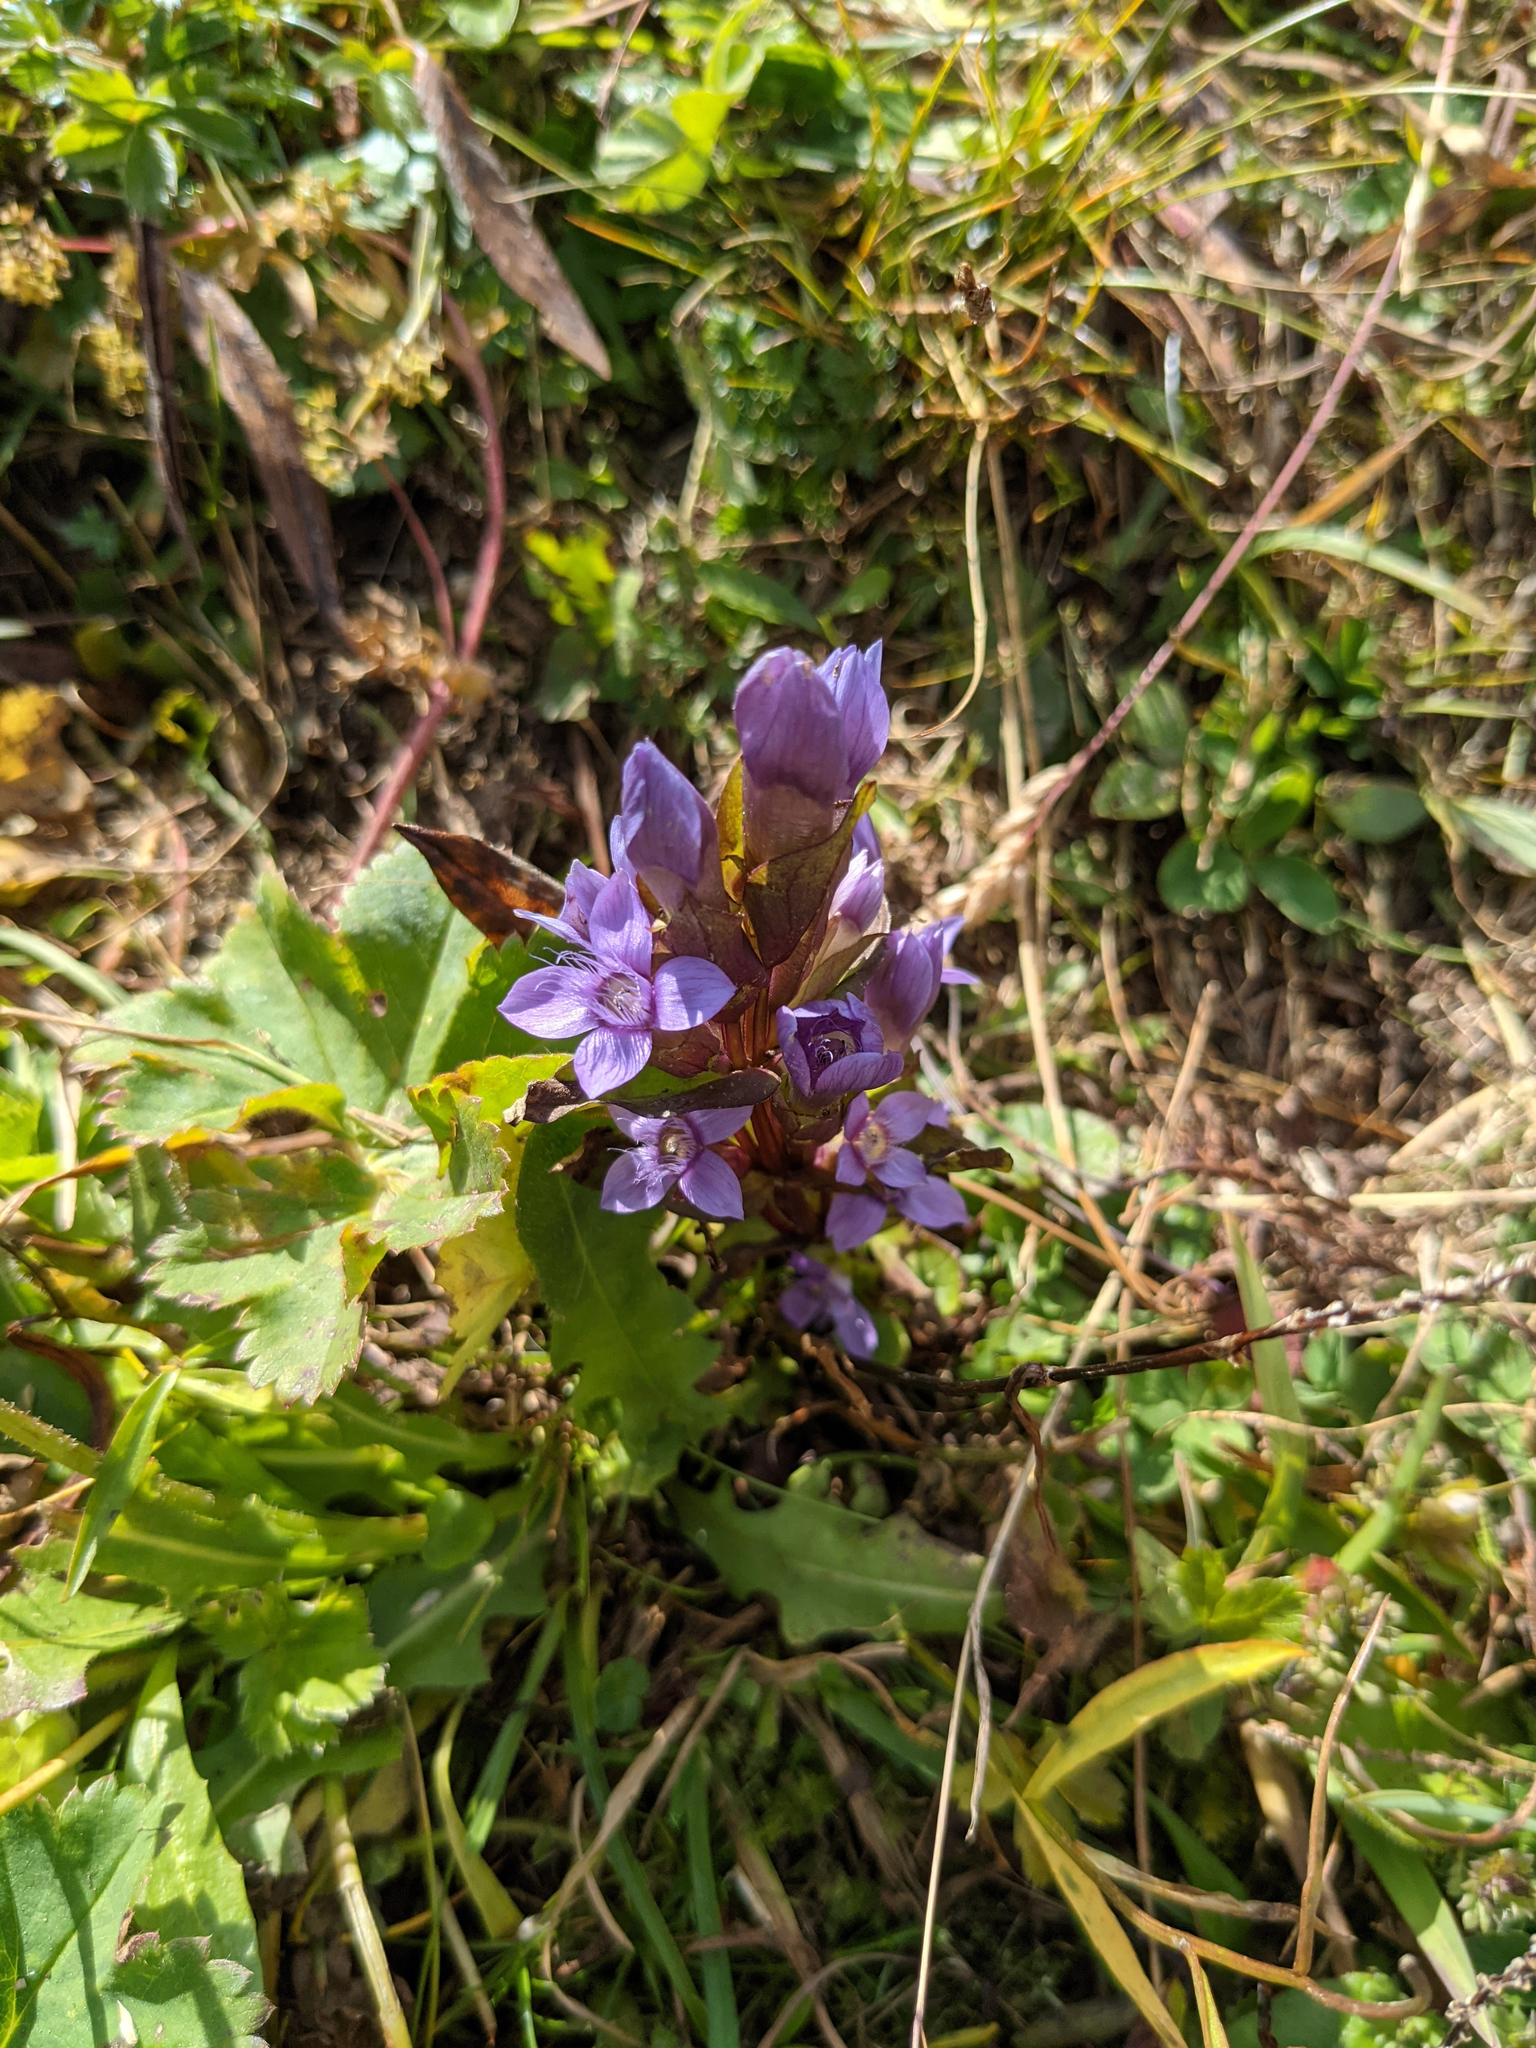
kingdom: Plantae
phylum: Tracheophyta
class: Magnoliopsida
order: Gentianales
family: Gentianaceae
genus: Gentianella
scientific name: Gentianella campestris
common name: Field gentian
